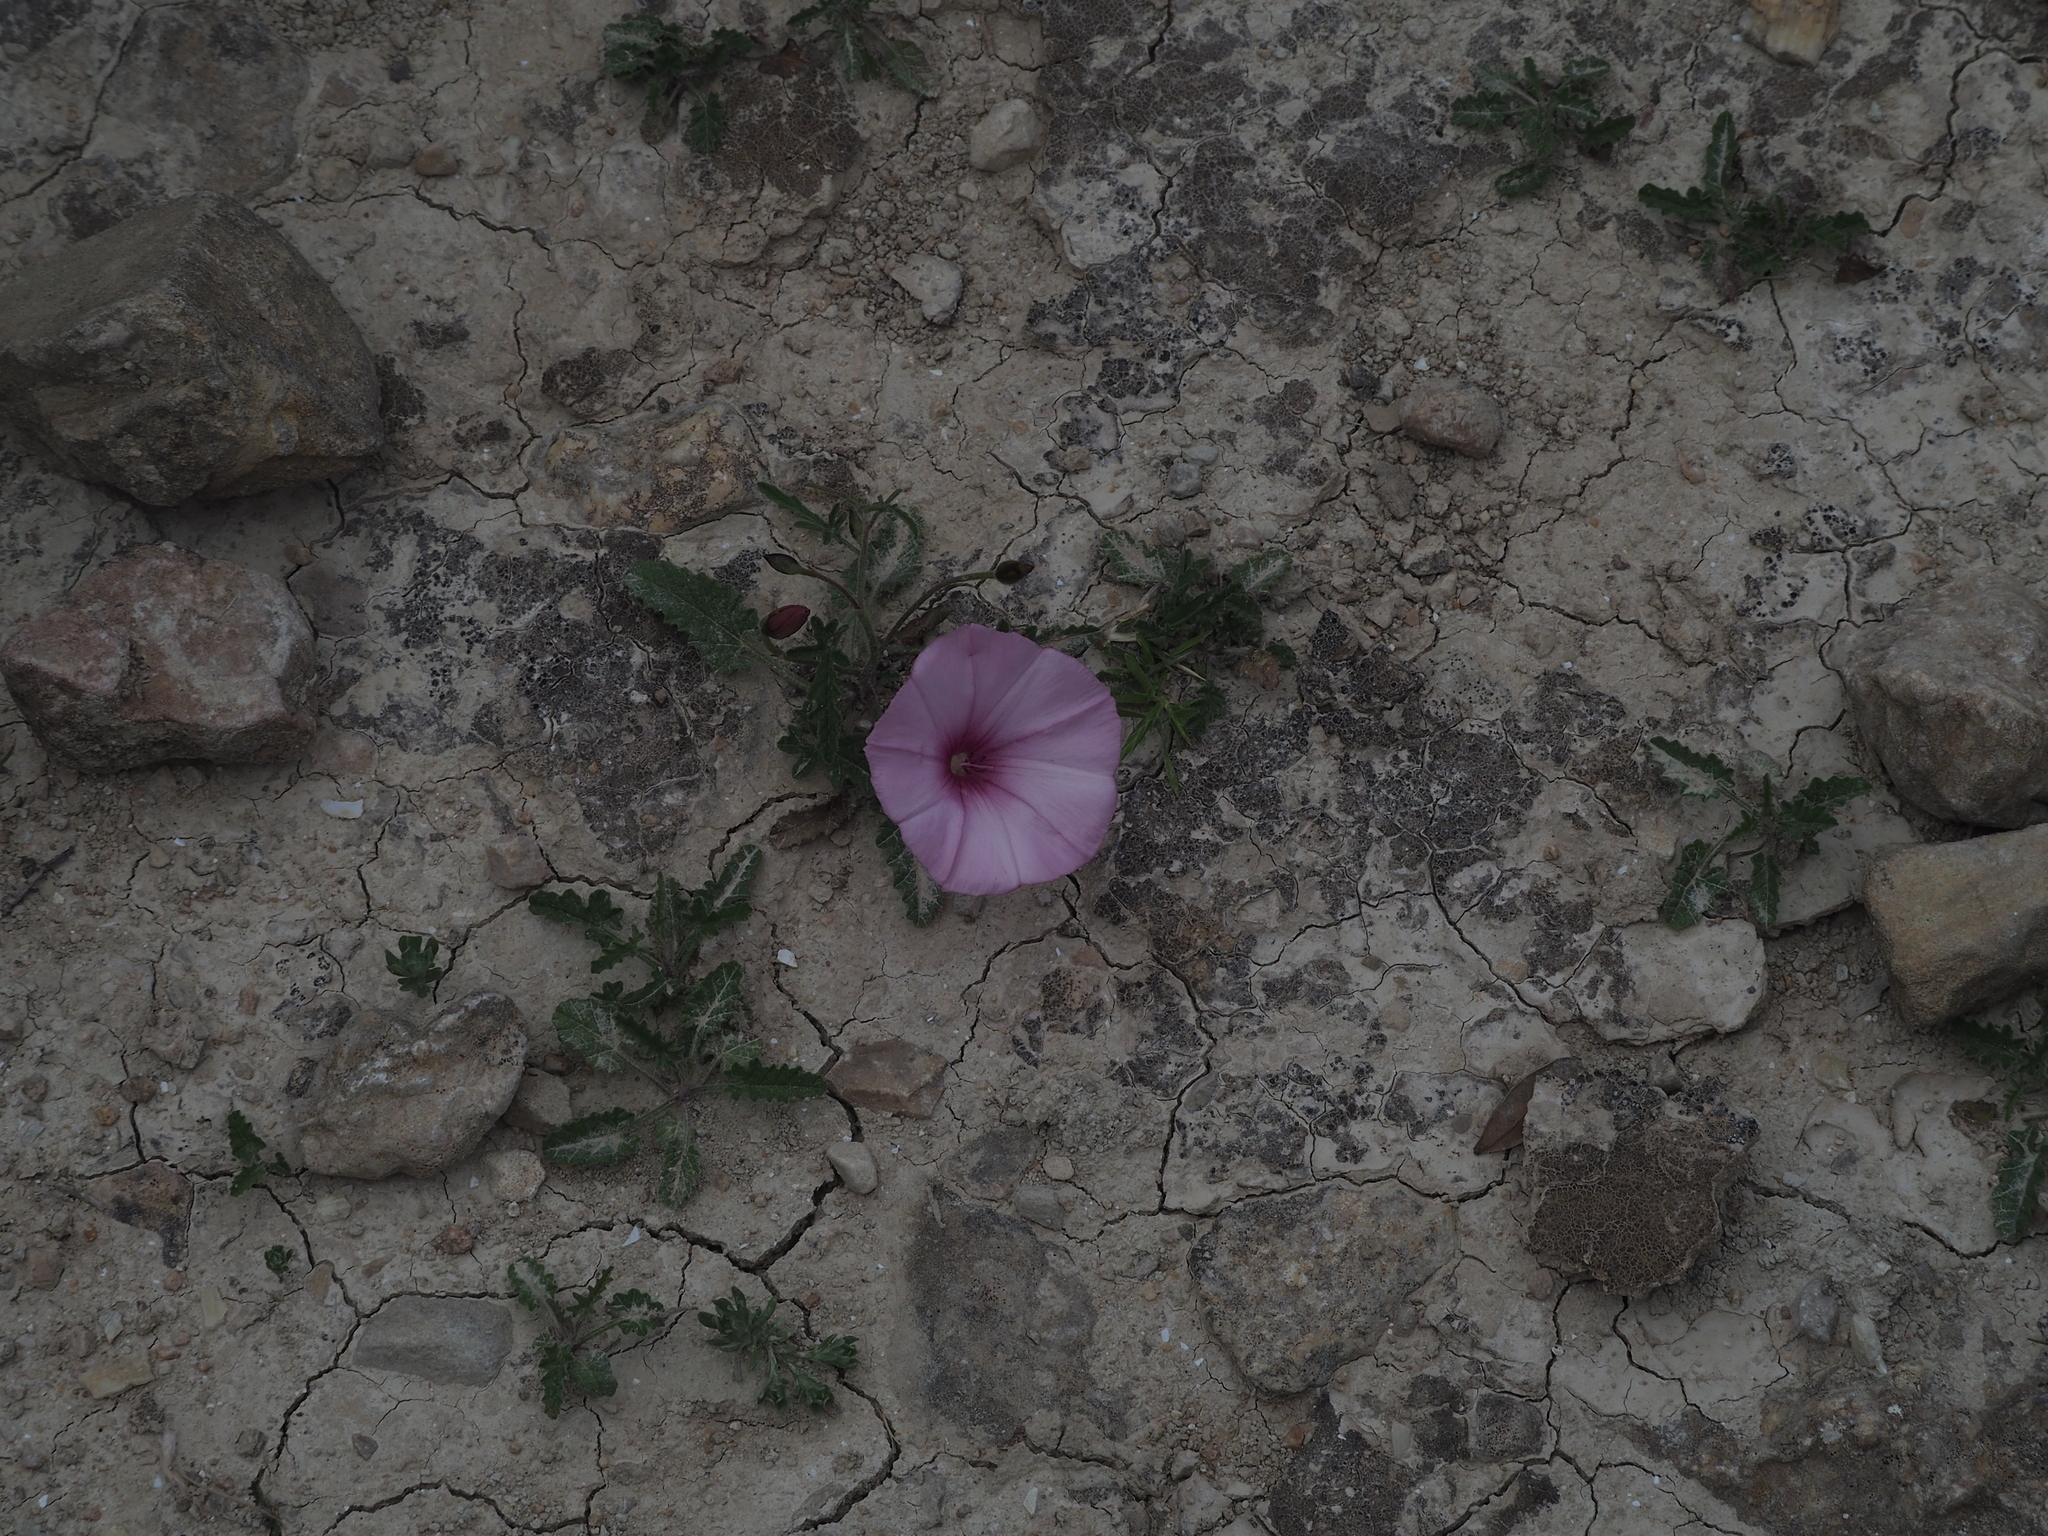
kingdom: Plantae
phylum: Tracheophyta
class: Magnoliopsida
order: Solanales
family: Convolvulaceae
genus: Convolvulus
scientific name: Convolvulus althaeoides
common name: Mallow bindweed
